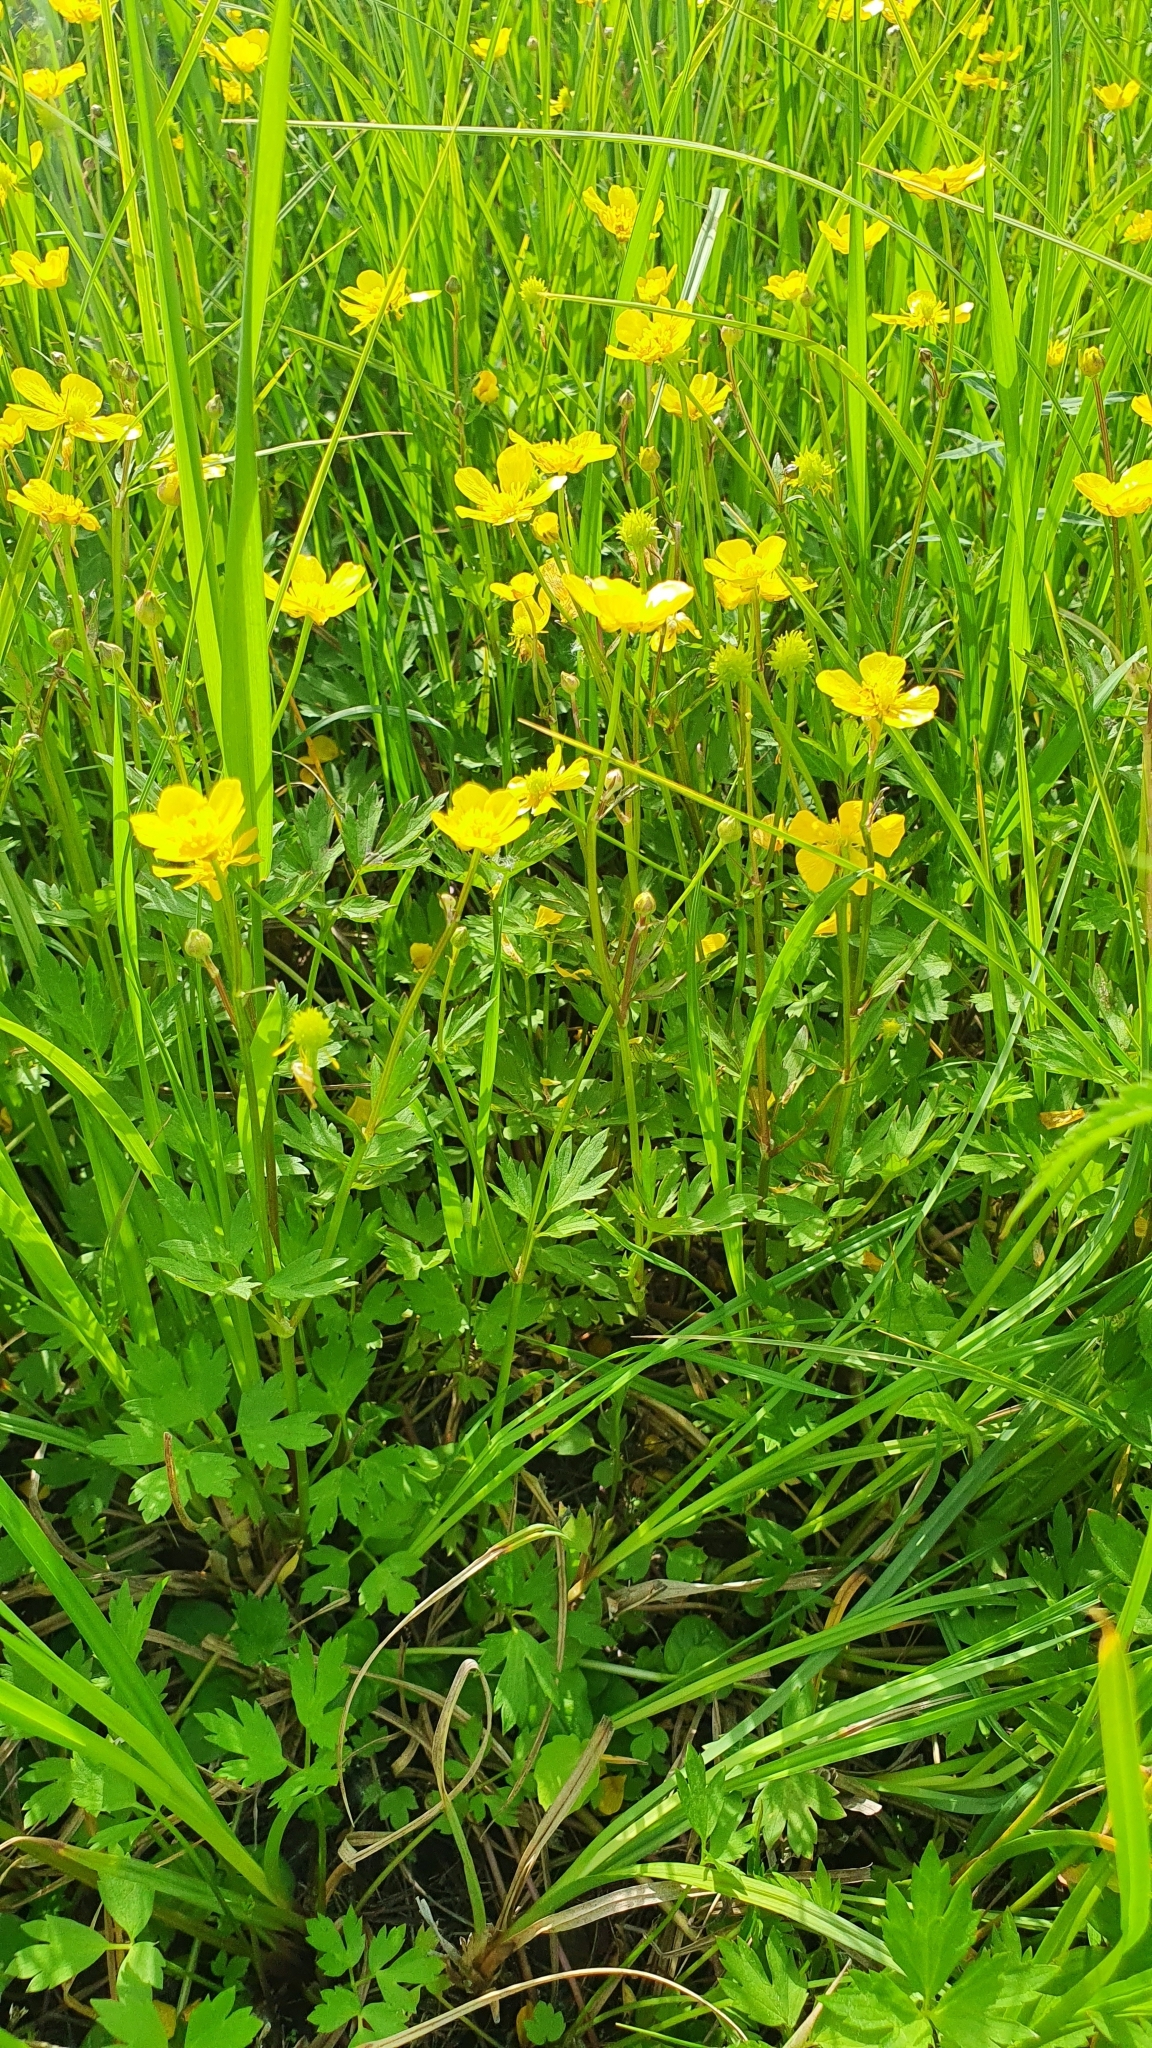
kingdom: Plantae
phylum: Tracheophyta
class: Magnoliopsida
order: Ranunculales
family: Ranunculaceae
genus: Ranunculus
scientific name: Ranunculus repens
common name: Creeping buttercup
